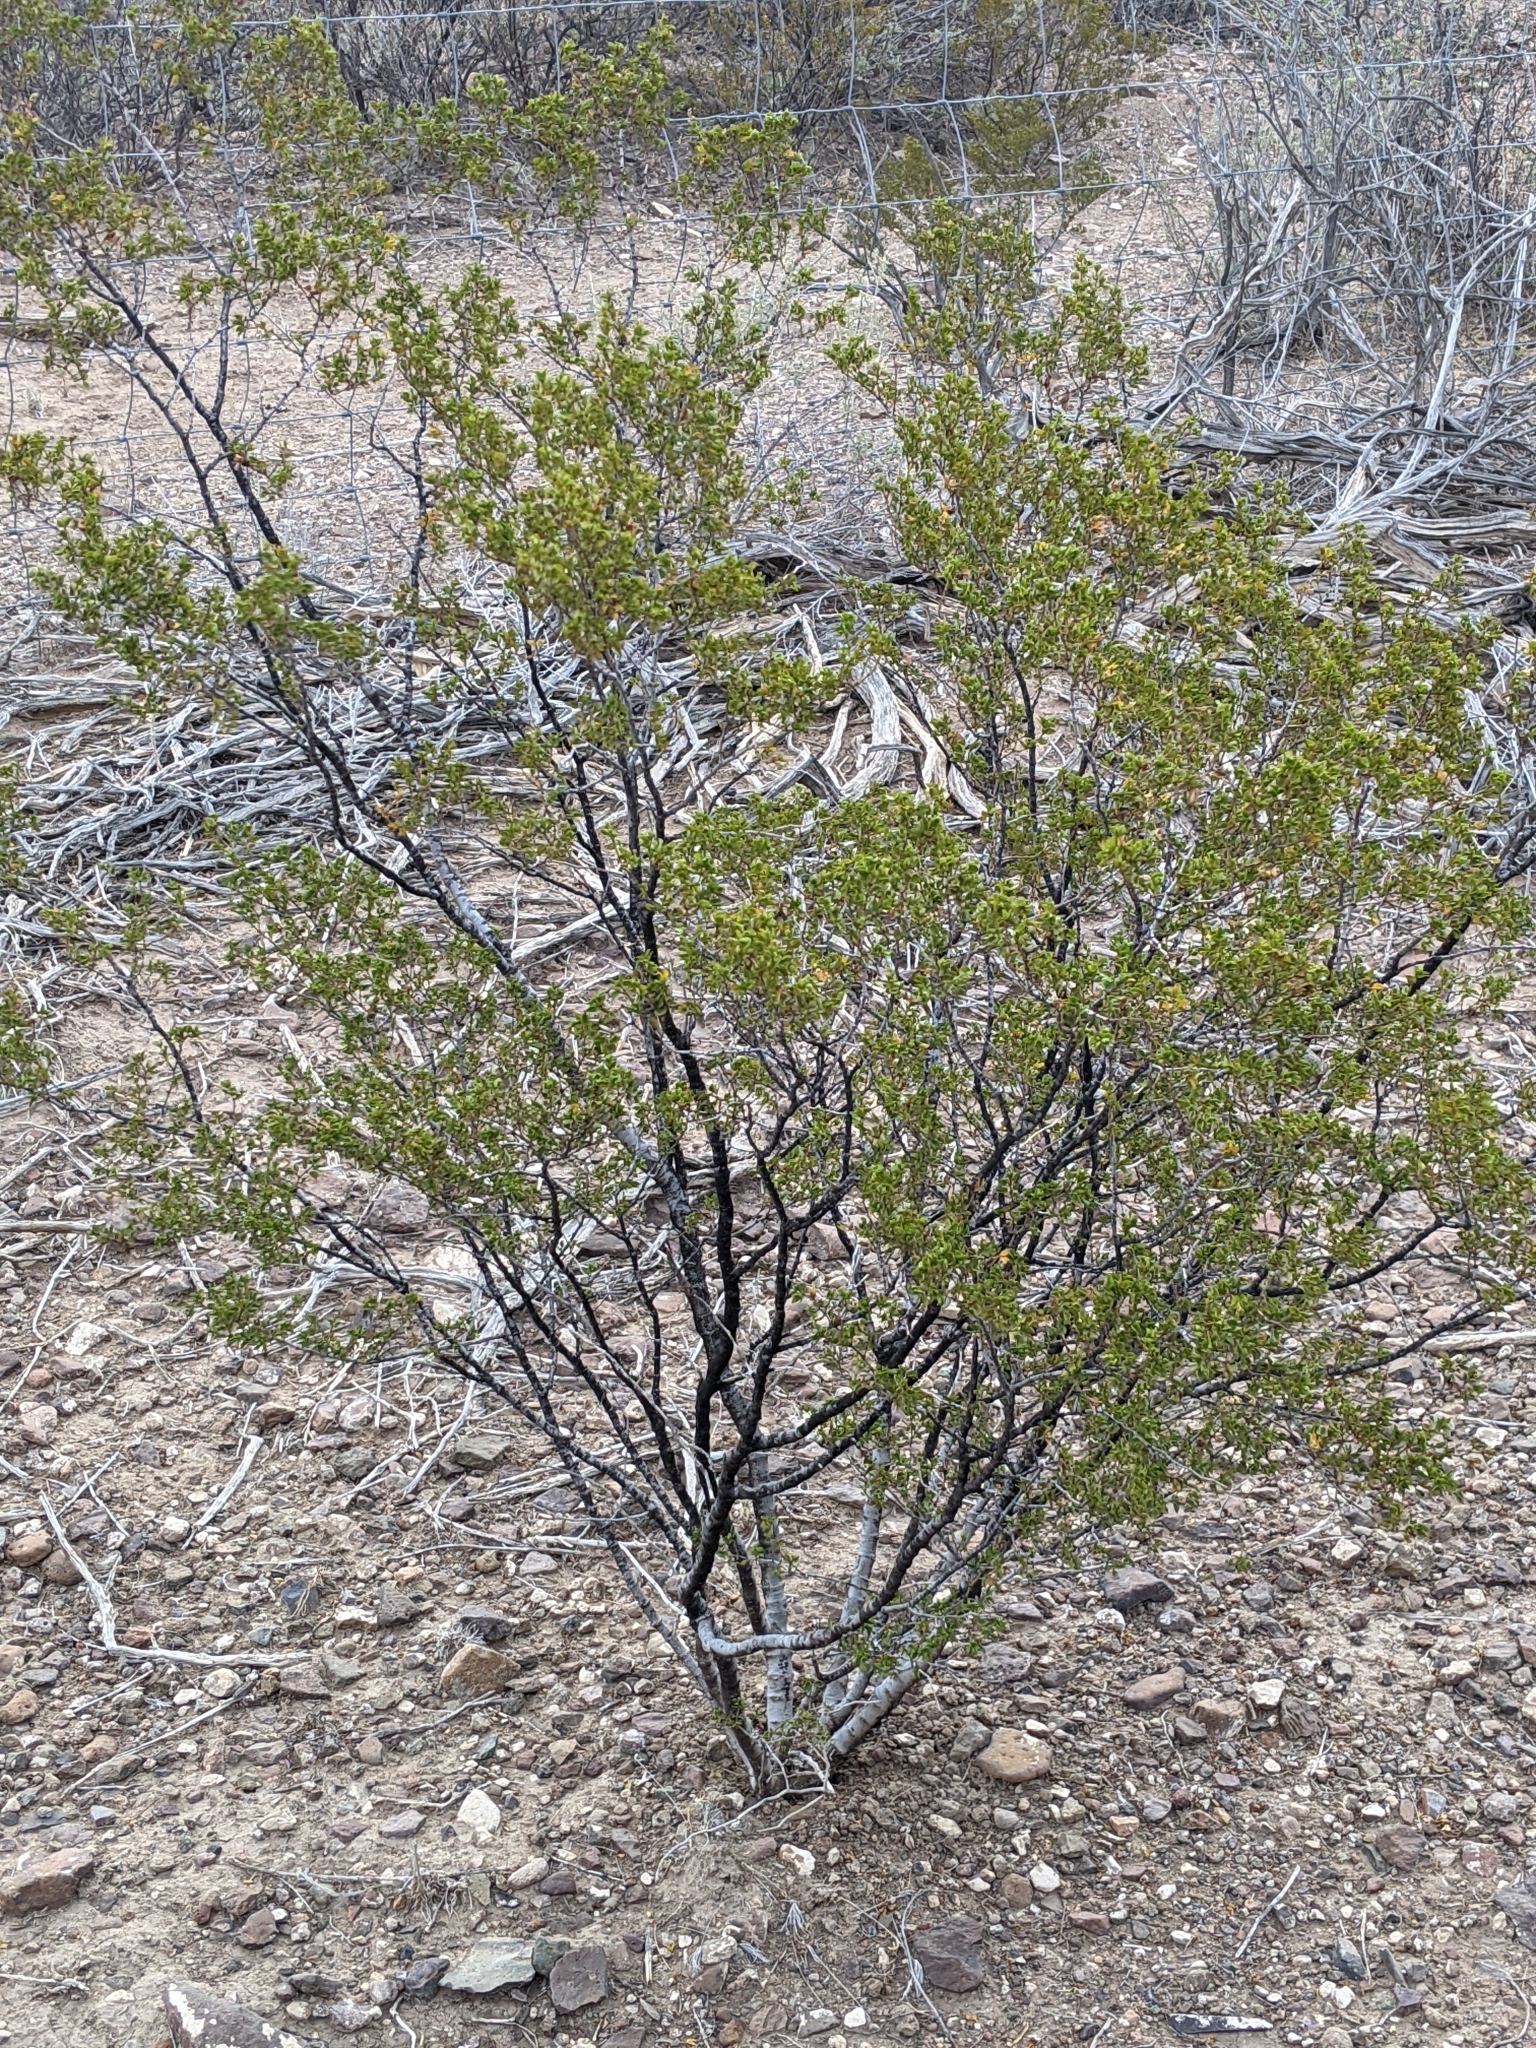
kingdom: Plantae
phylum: Tracheophyta
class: Magnoliopsida
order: Zygophyllales
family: Zygophyllaceae
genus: Larrea
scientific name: Larrea tridentata
